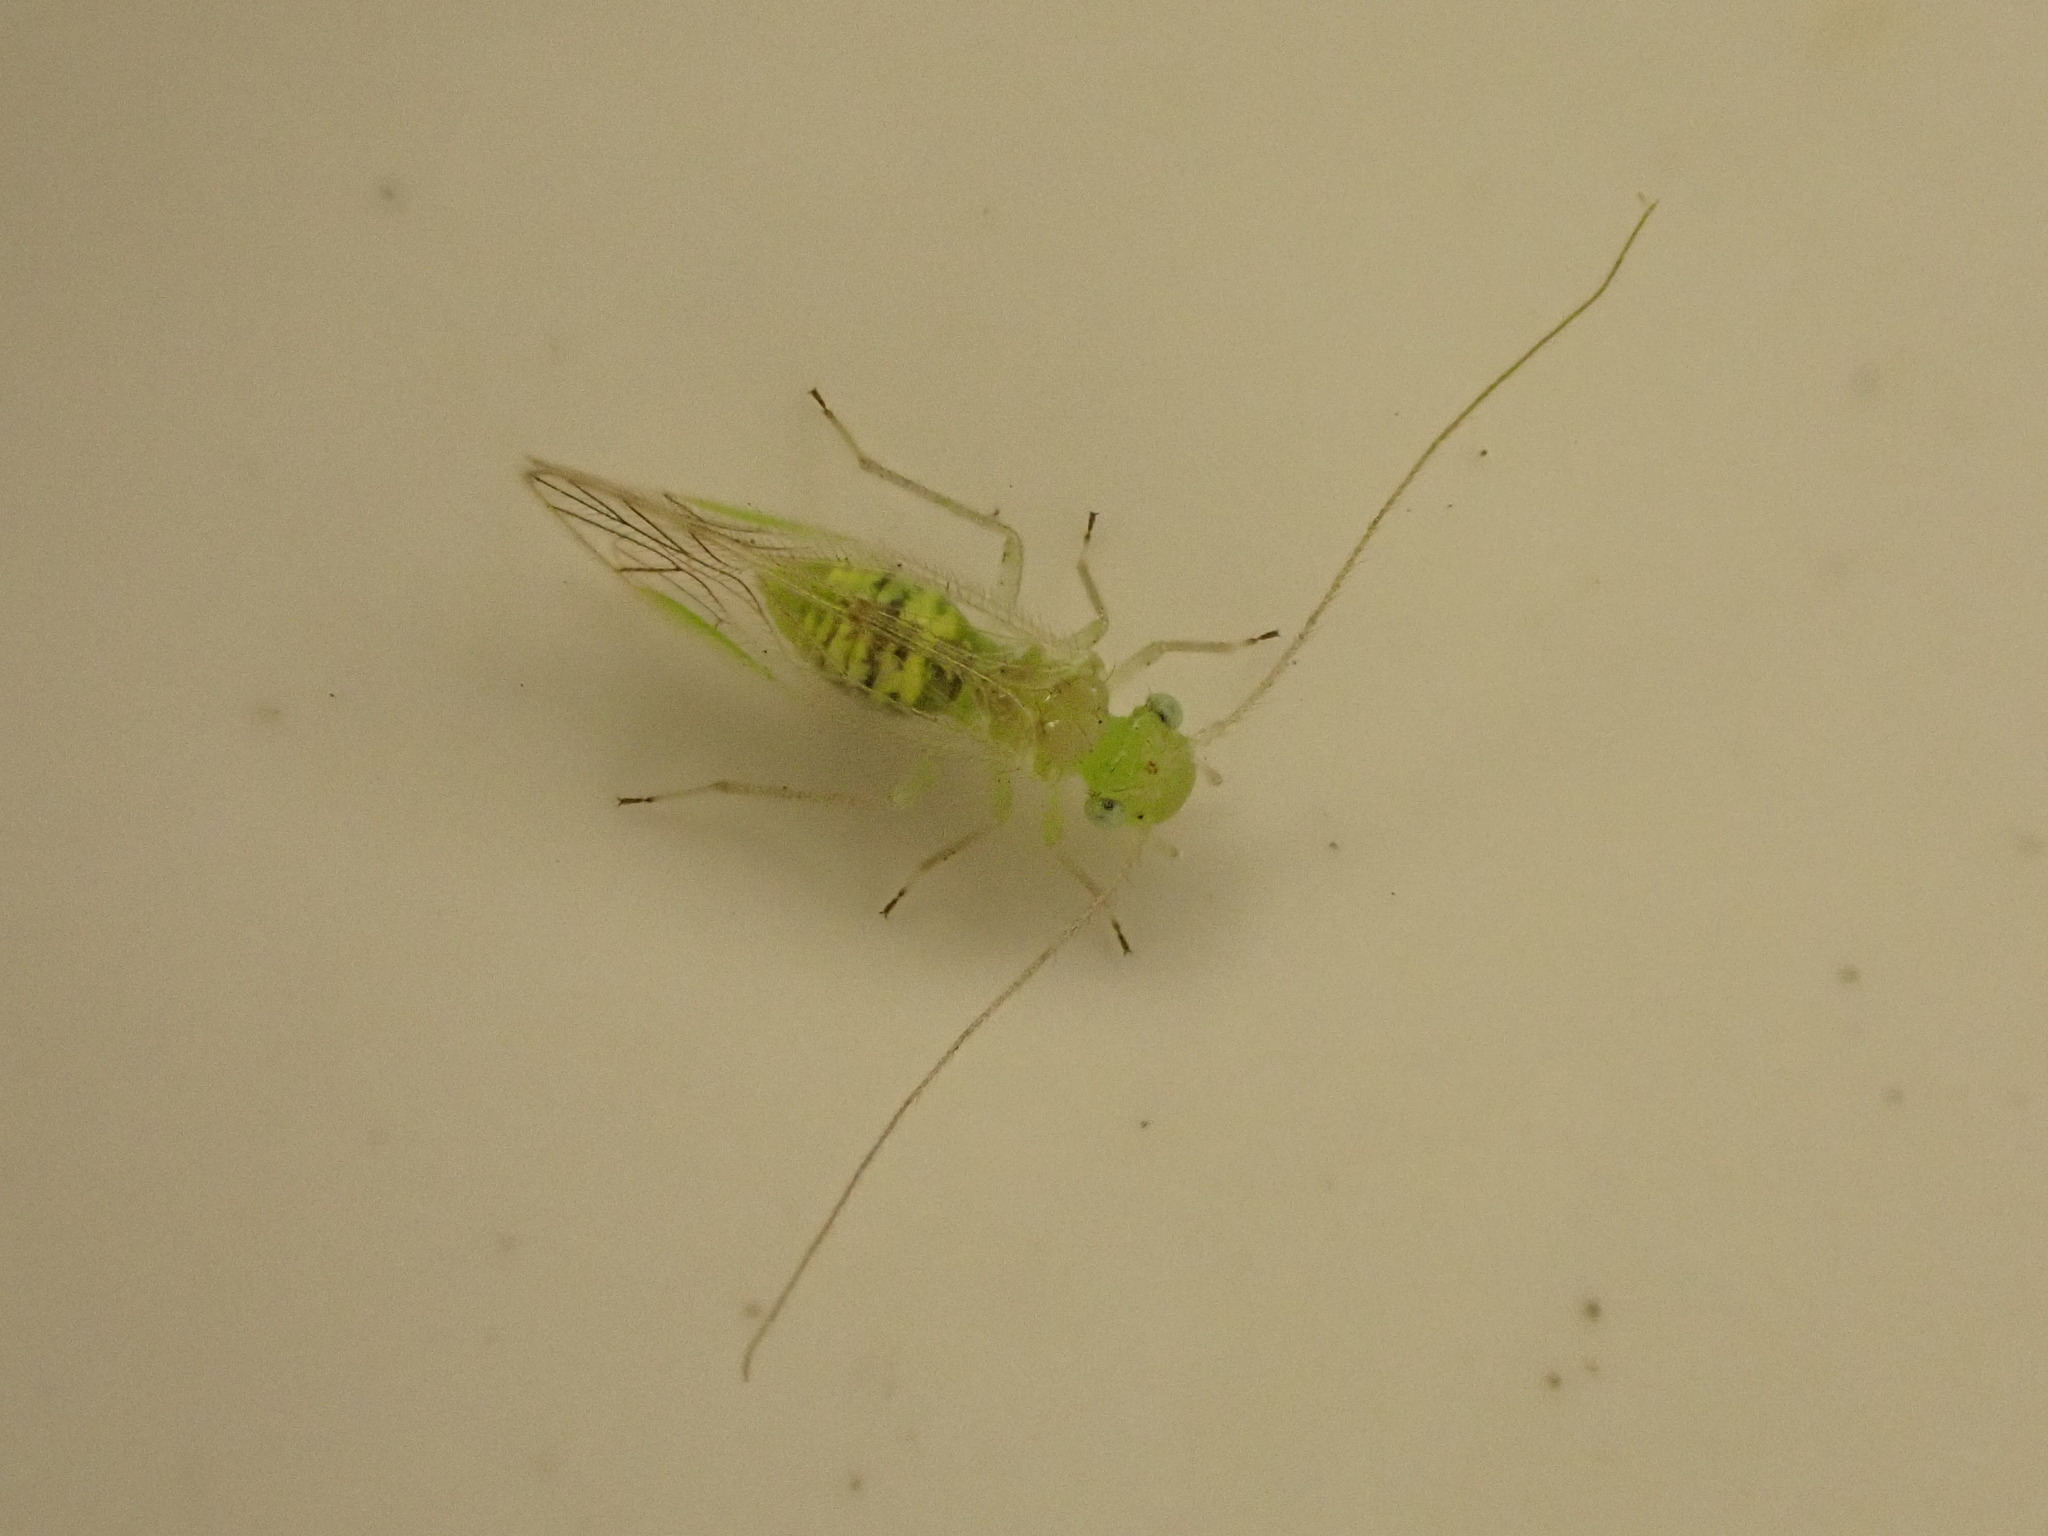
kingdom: Animalia
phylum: Arthropoda
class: Insecta
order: Psocodea
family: Pseudocaeciliidae
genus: Austropsocus
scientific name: Austropsocus viridis
